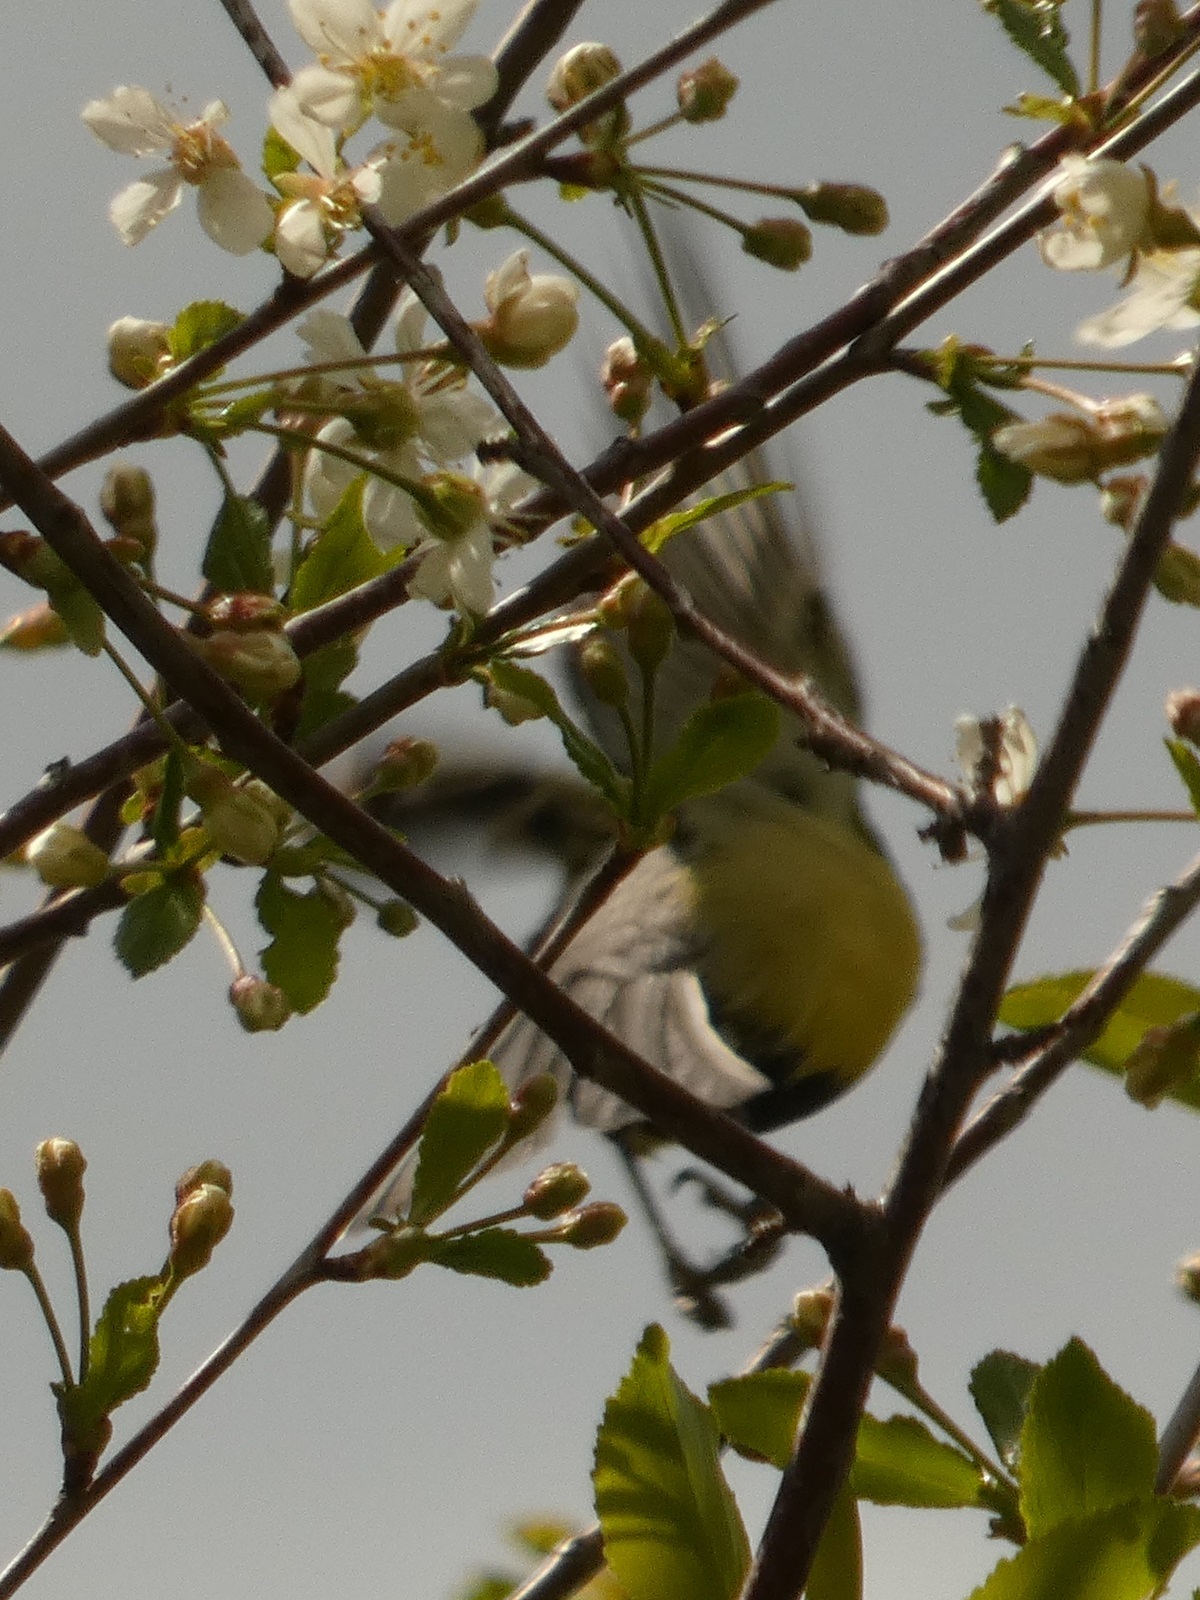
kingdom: Animalia
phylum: Chordata
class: Aves
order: Passeriformes
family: Paridae
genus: Parus
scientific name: Parus major
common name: Great tit
